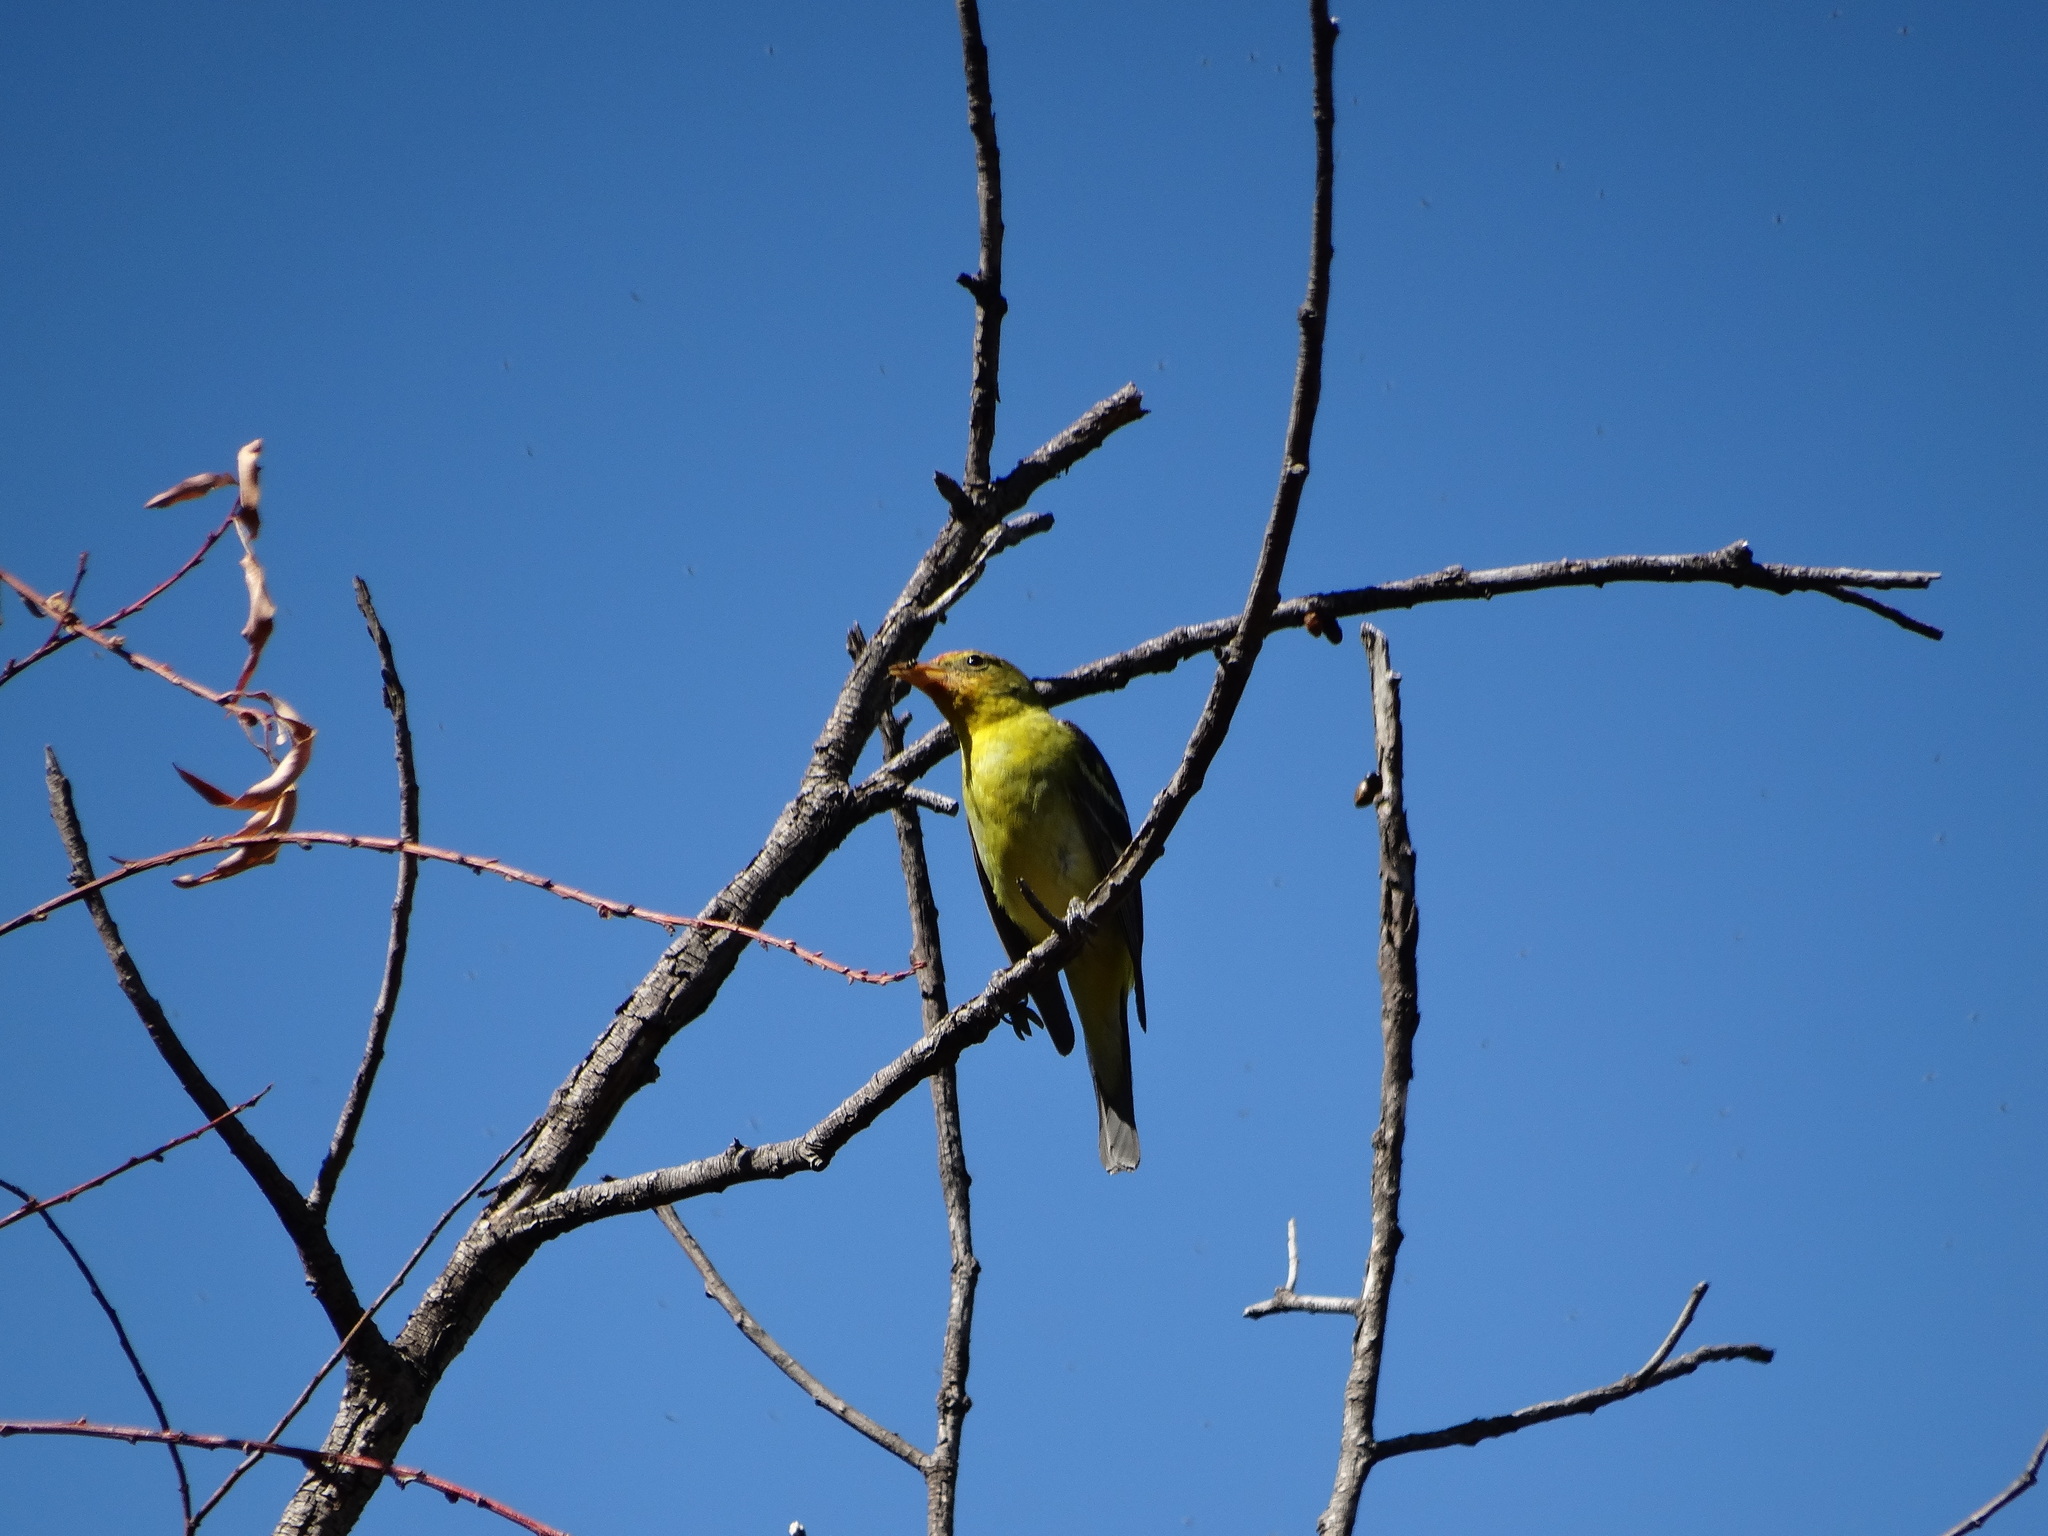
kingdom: Animalia
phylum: Chordata
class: Aves
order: Passeriformes
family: Cardinalidae
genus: Piranga
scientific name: Piranga ludoviciana
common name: Western tanager
